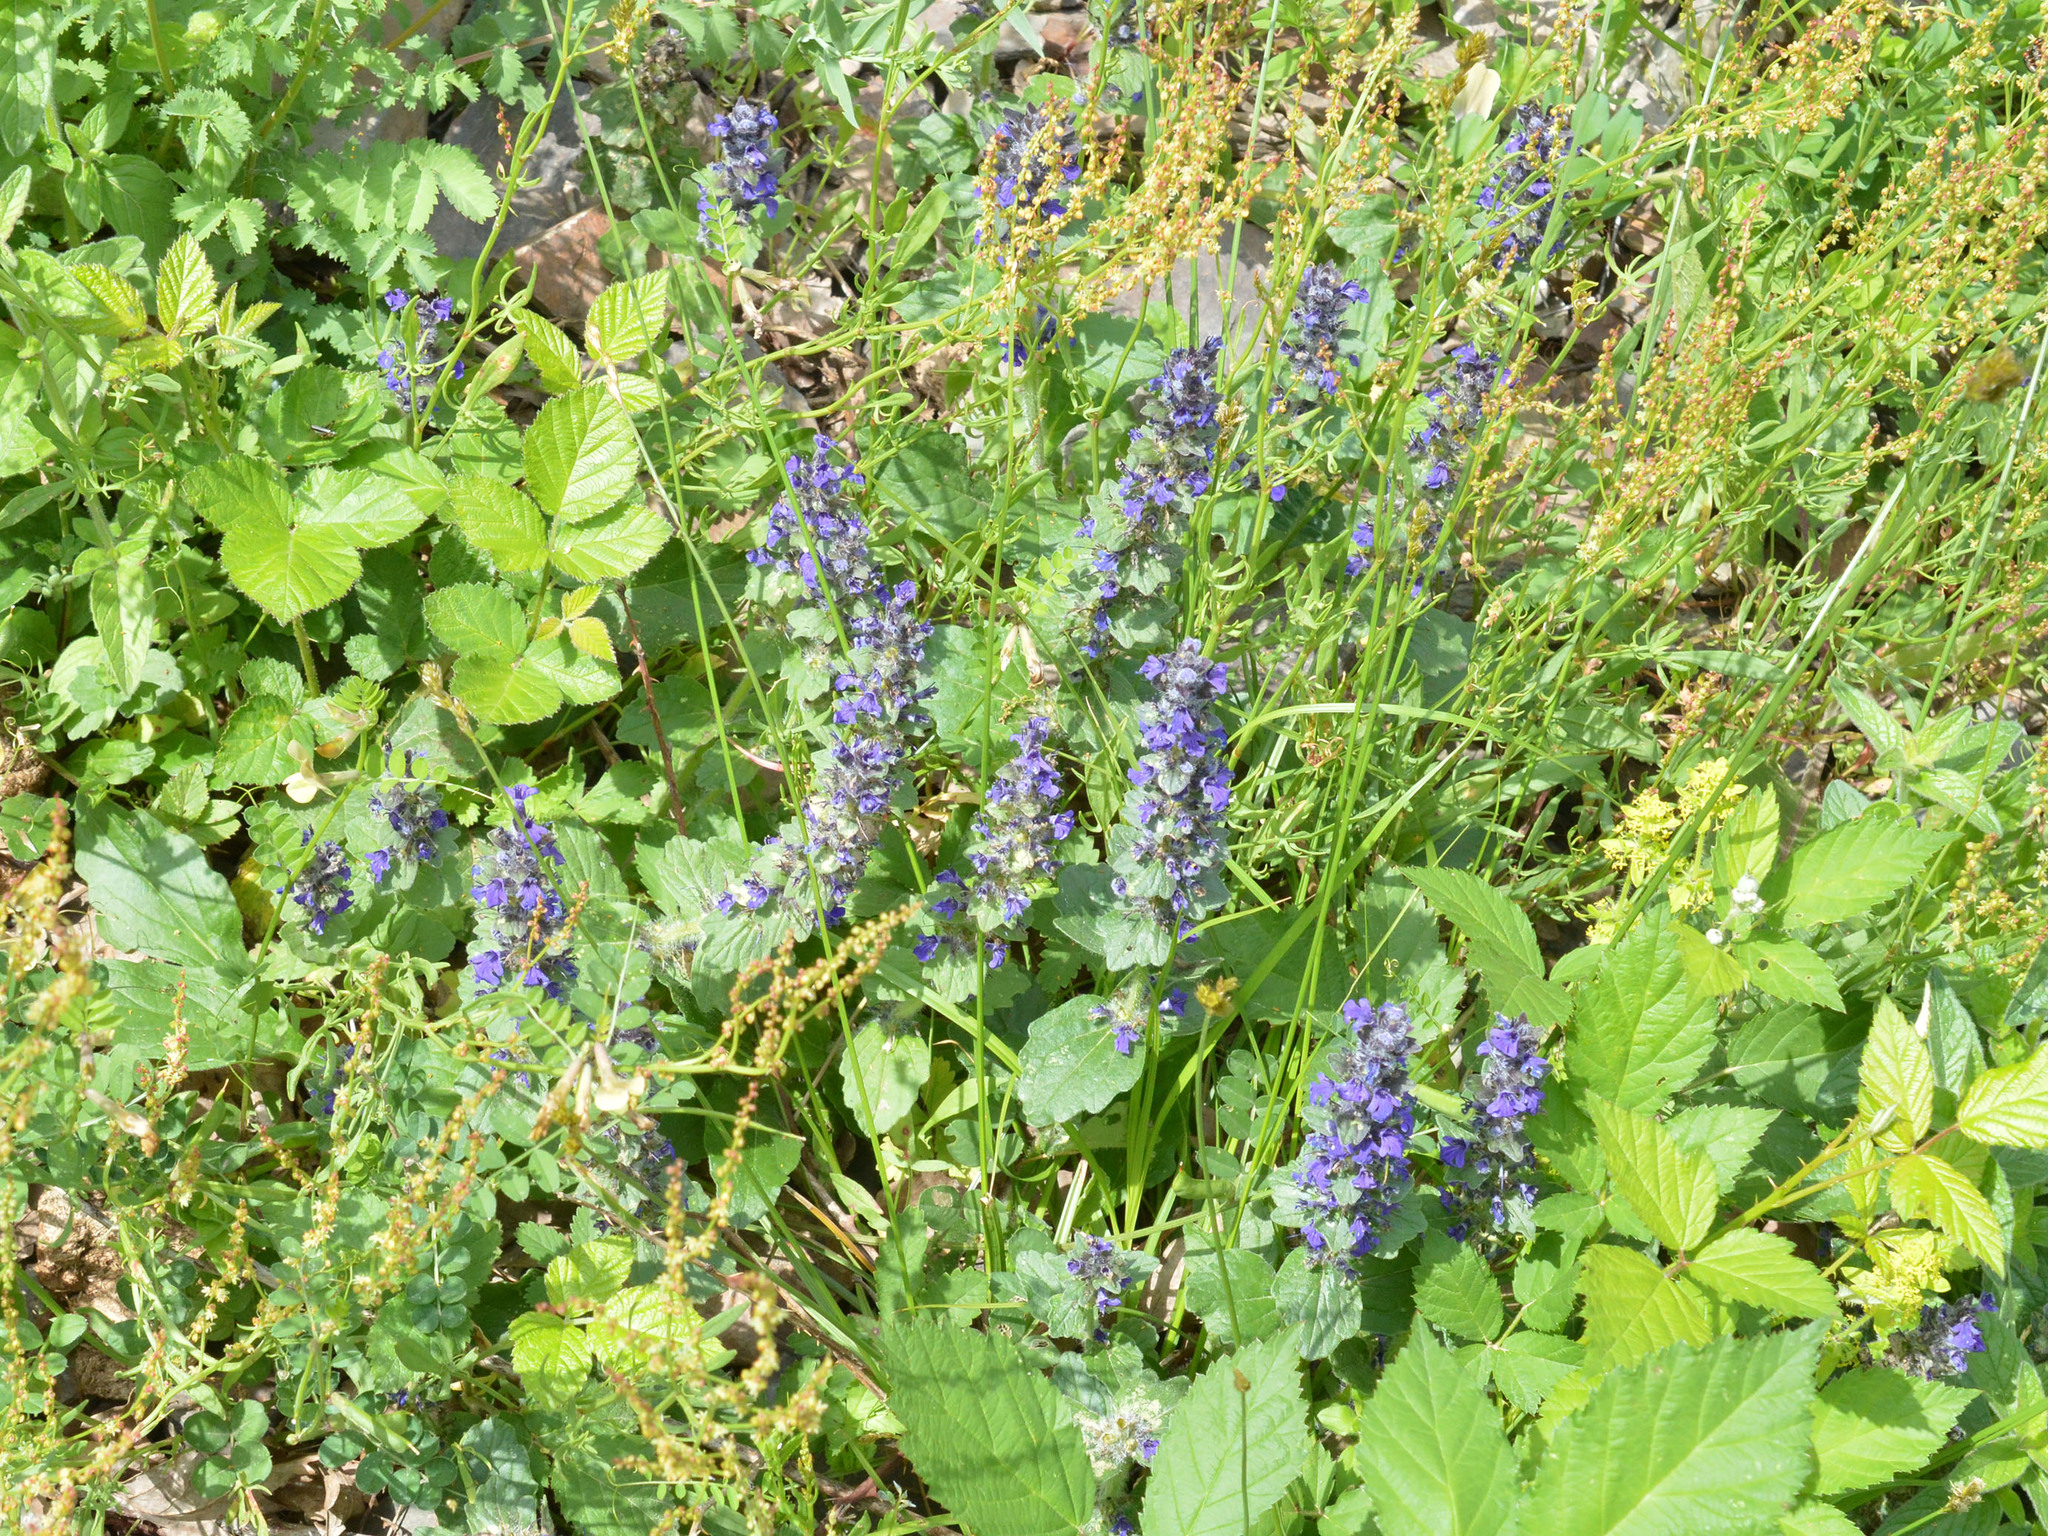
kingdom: Plantae
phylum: Tracheophyta
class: Magnoliopsida
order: Lamiales
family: Lamiaceae
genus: Ajuga
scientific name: Ajuga genevensis
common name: Blue bugle
